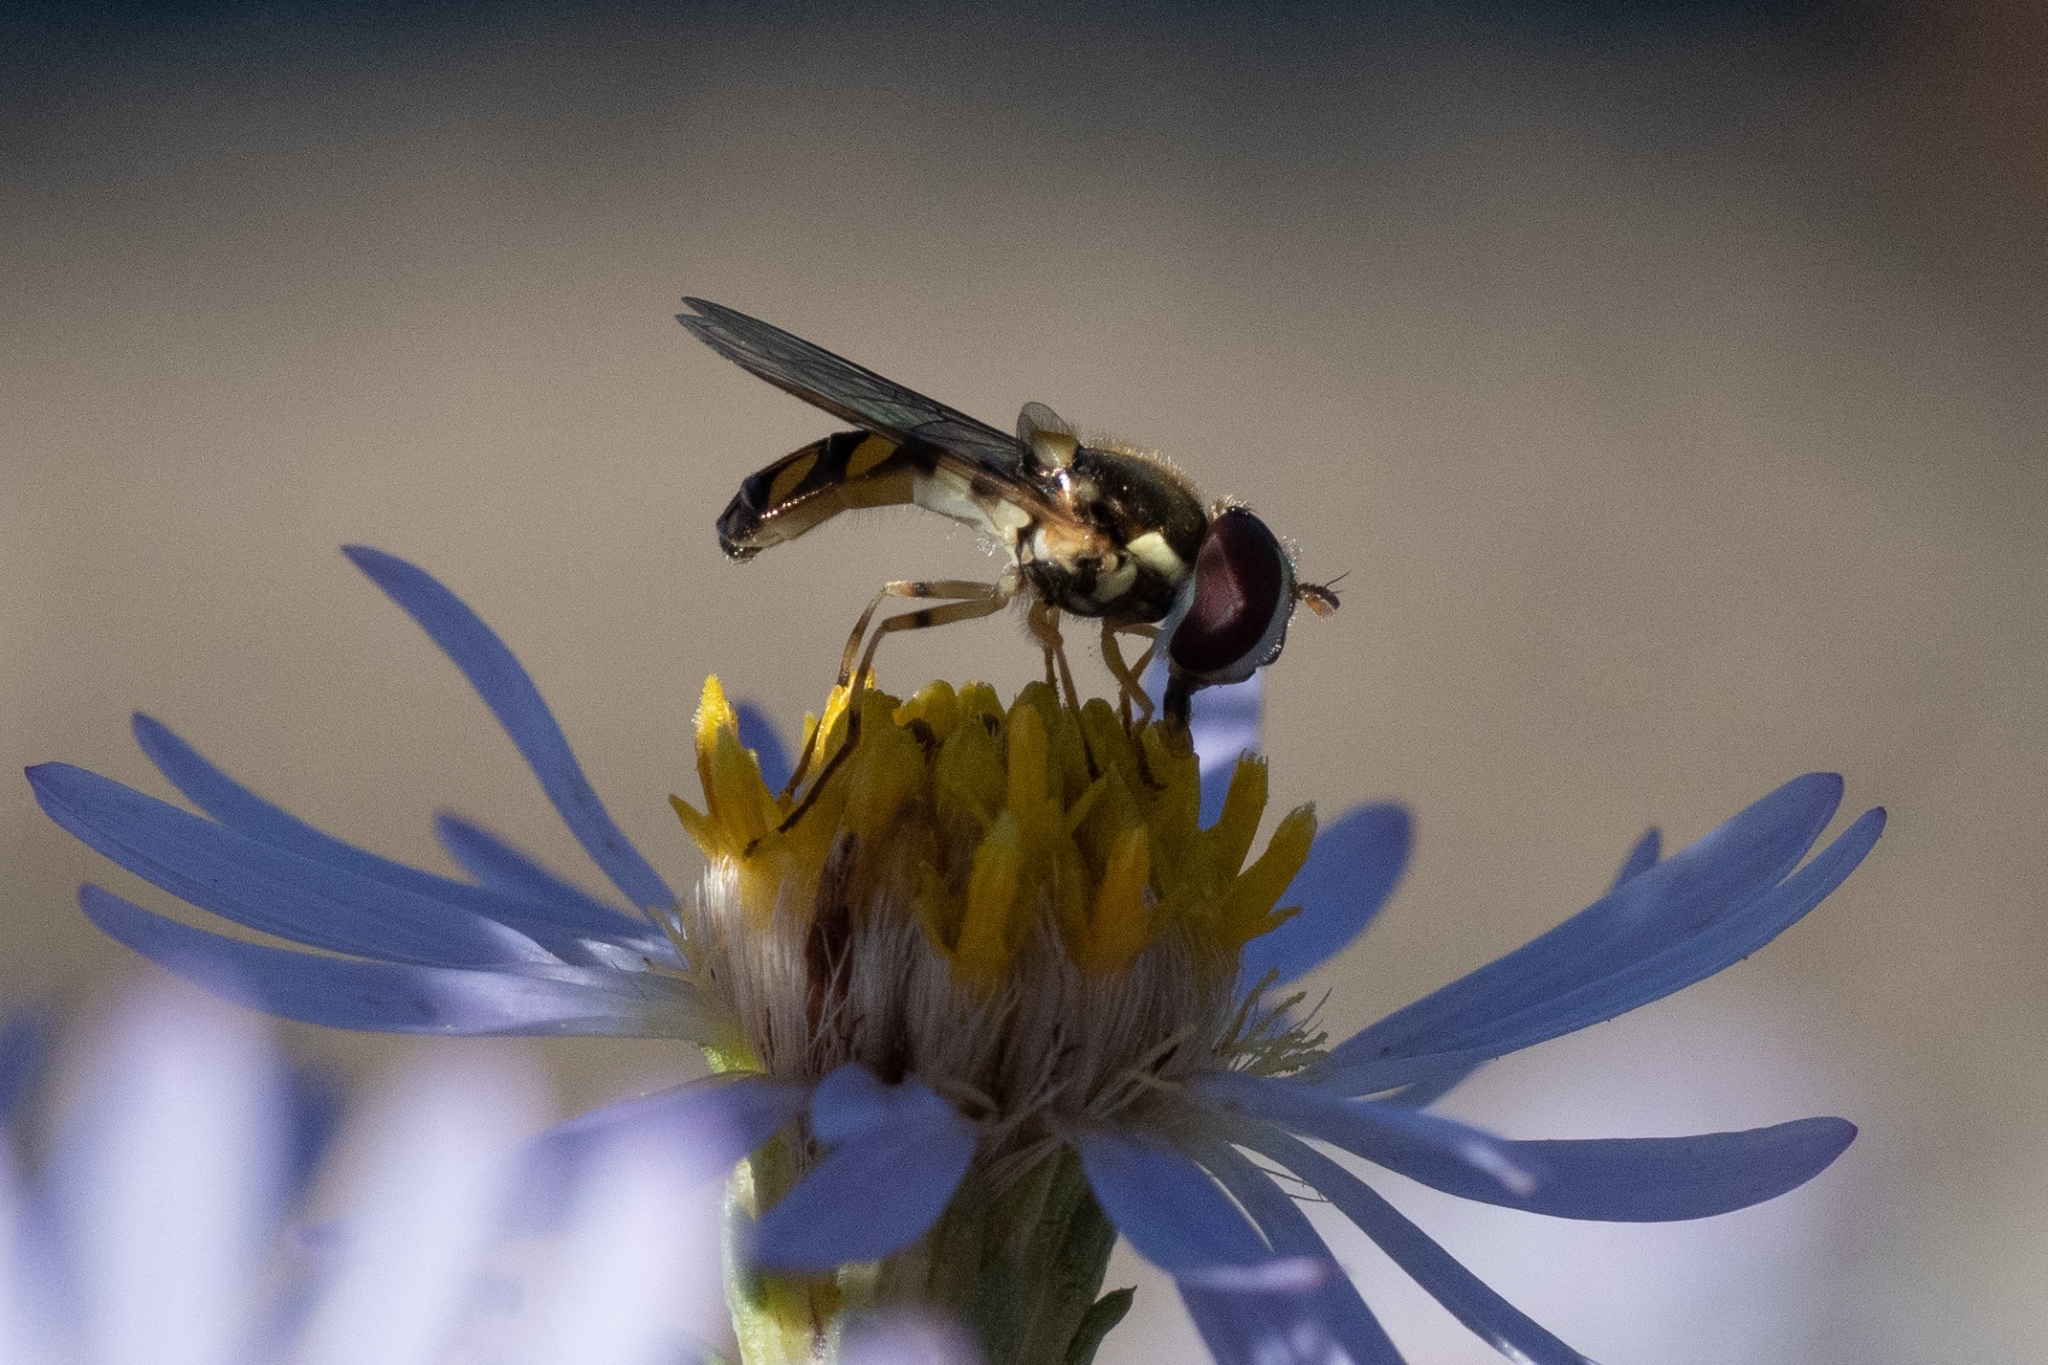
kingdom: Animalia
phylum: Arthropoda
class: Insecta
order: Diptera
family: Syrphidae
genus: Allograpta
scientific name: Allograpta exotica
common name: Syrphid fly
